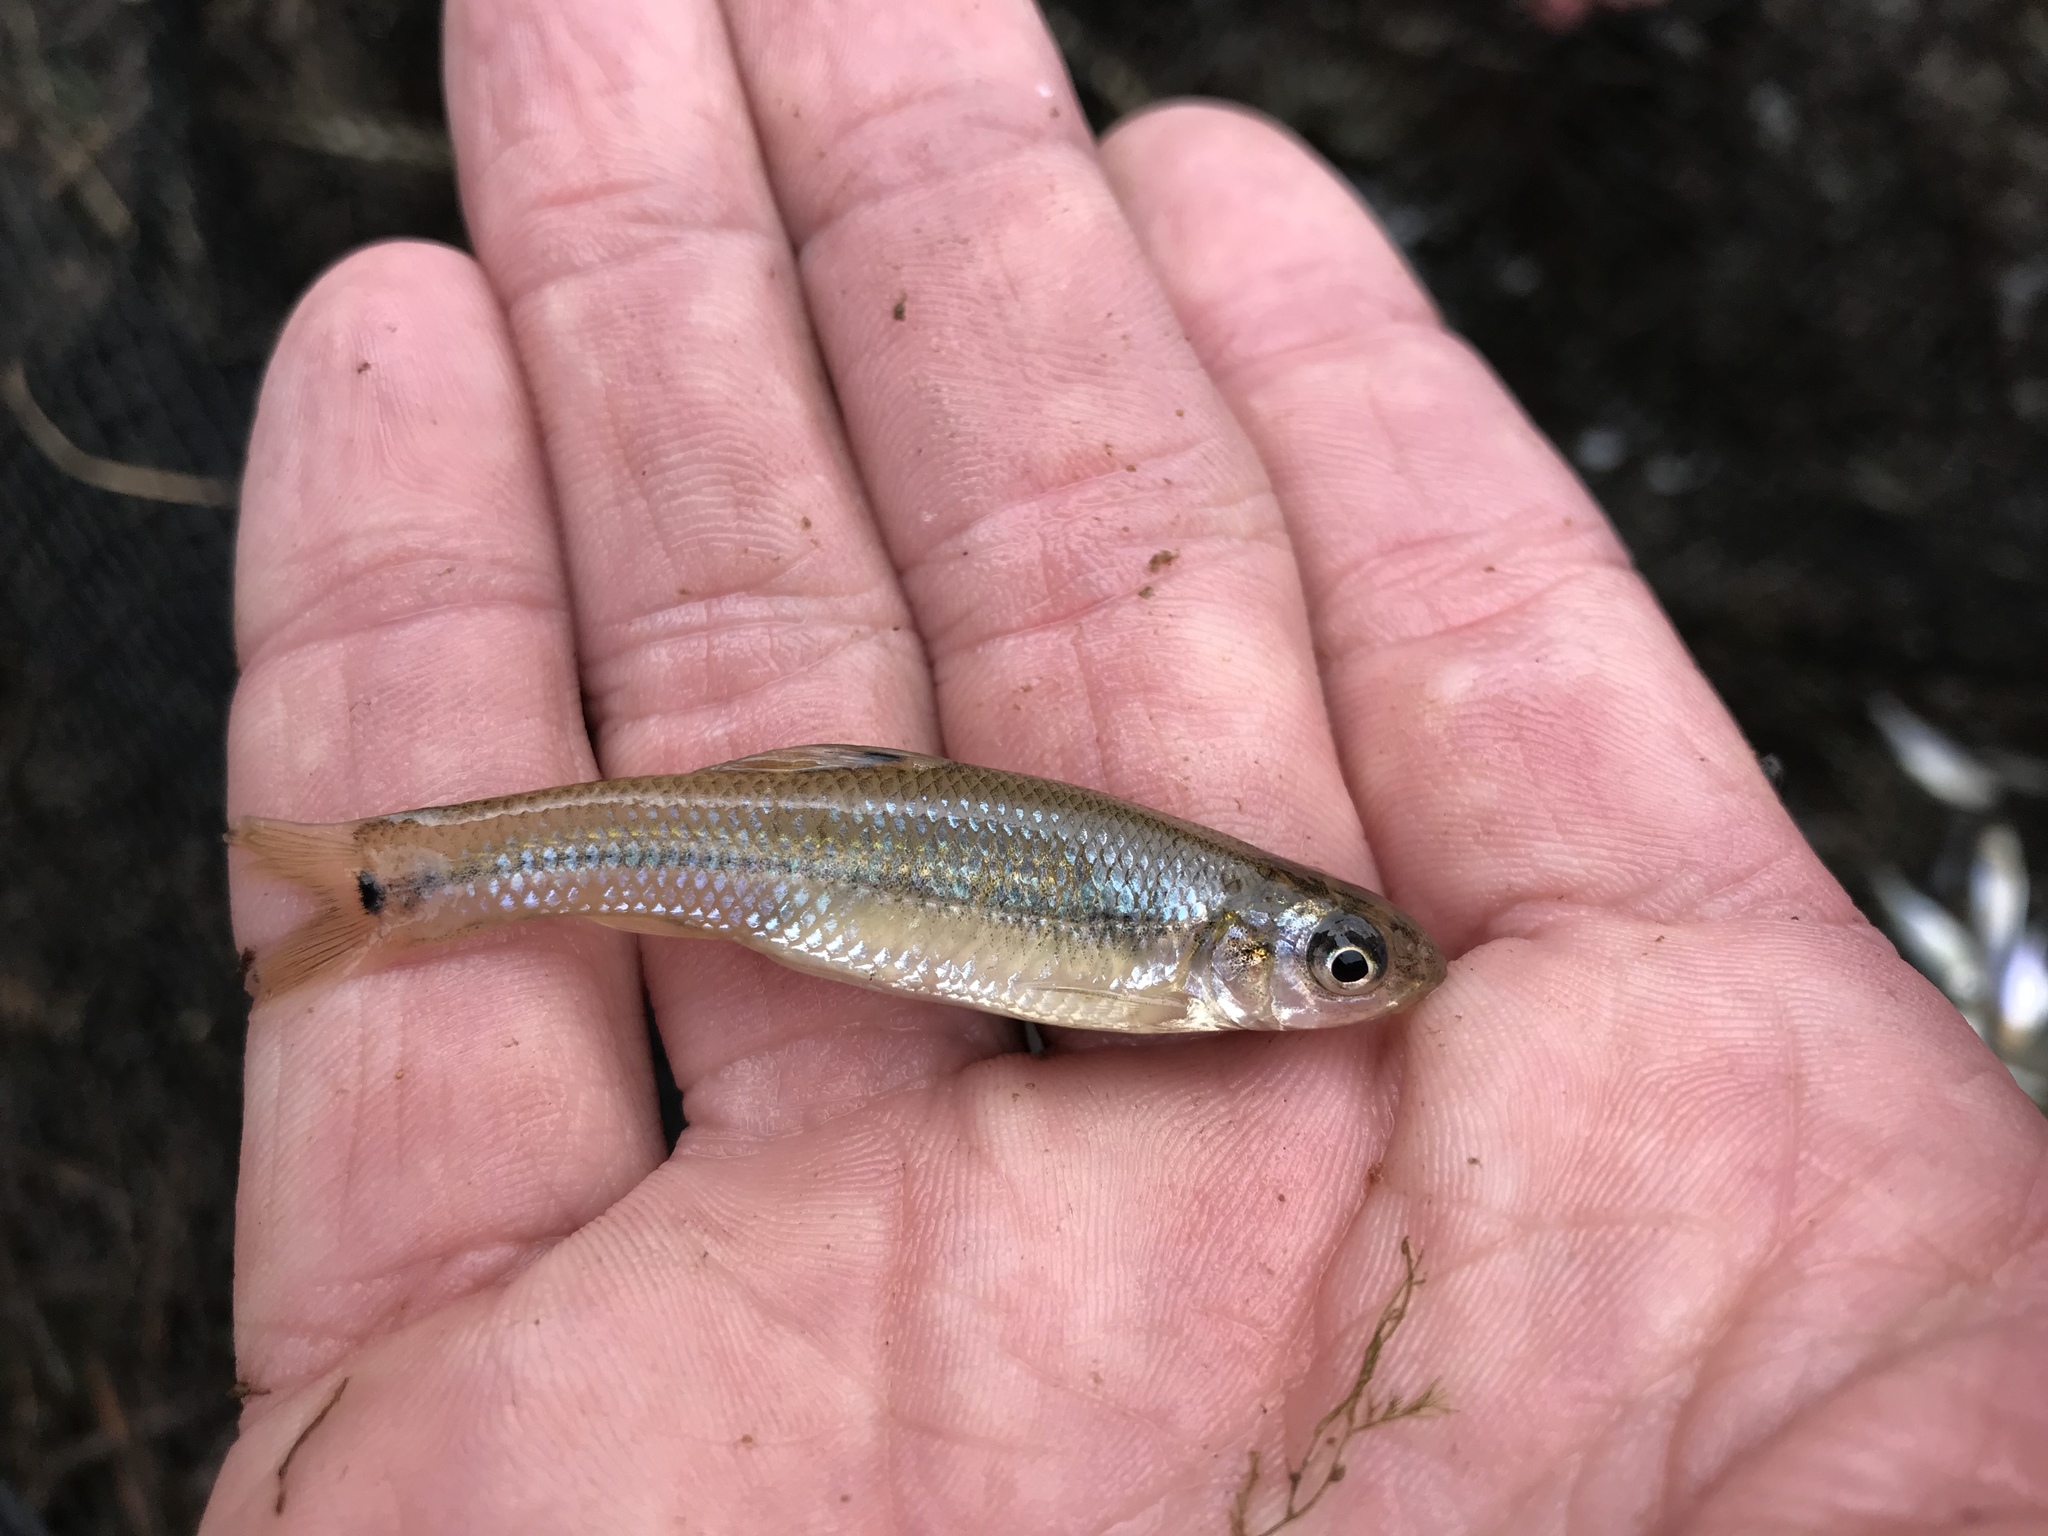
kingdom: Animalia
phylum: Chordata
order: Cypriniformes
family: Cyprinidae
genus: Pimephales
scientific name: Pimephales vigilax
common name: Bullhead minnow
